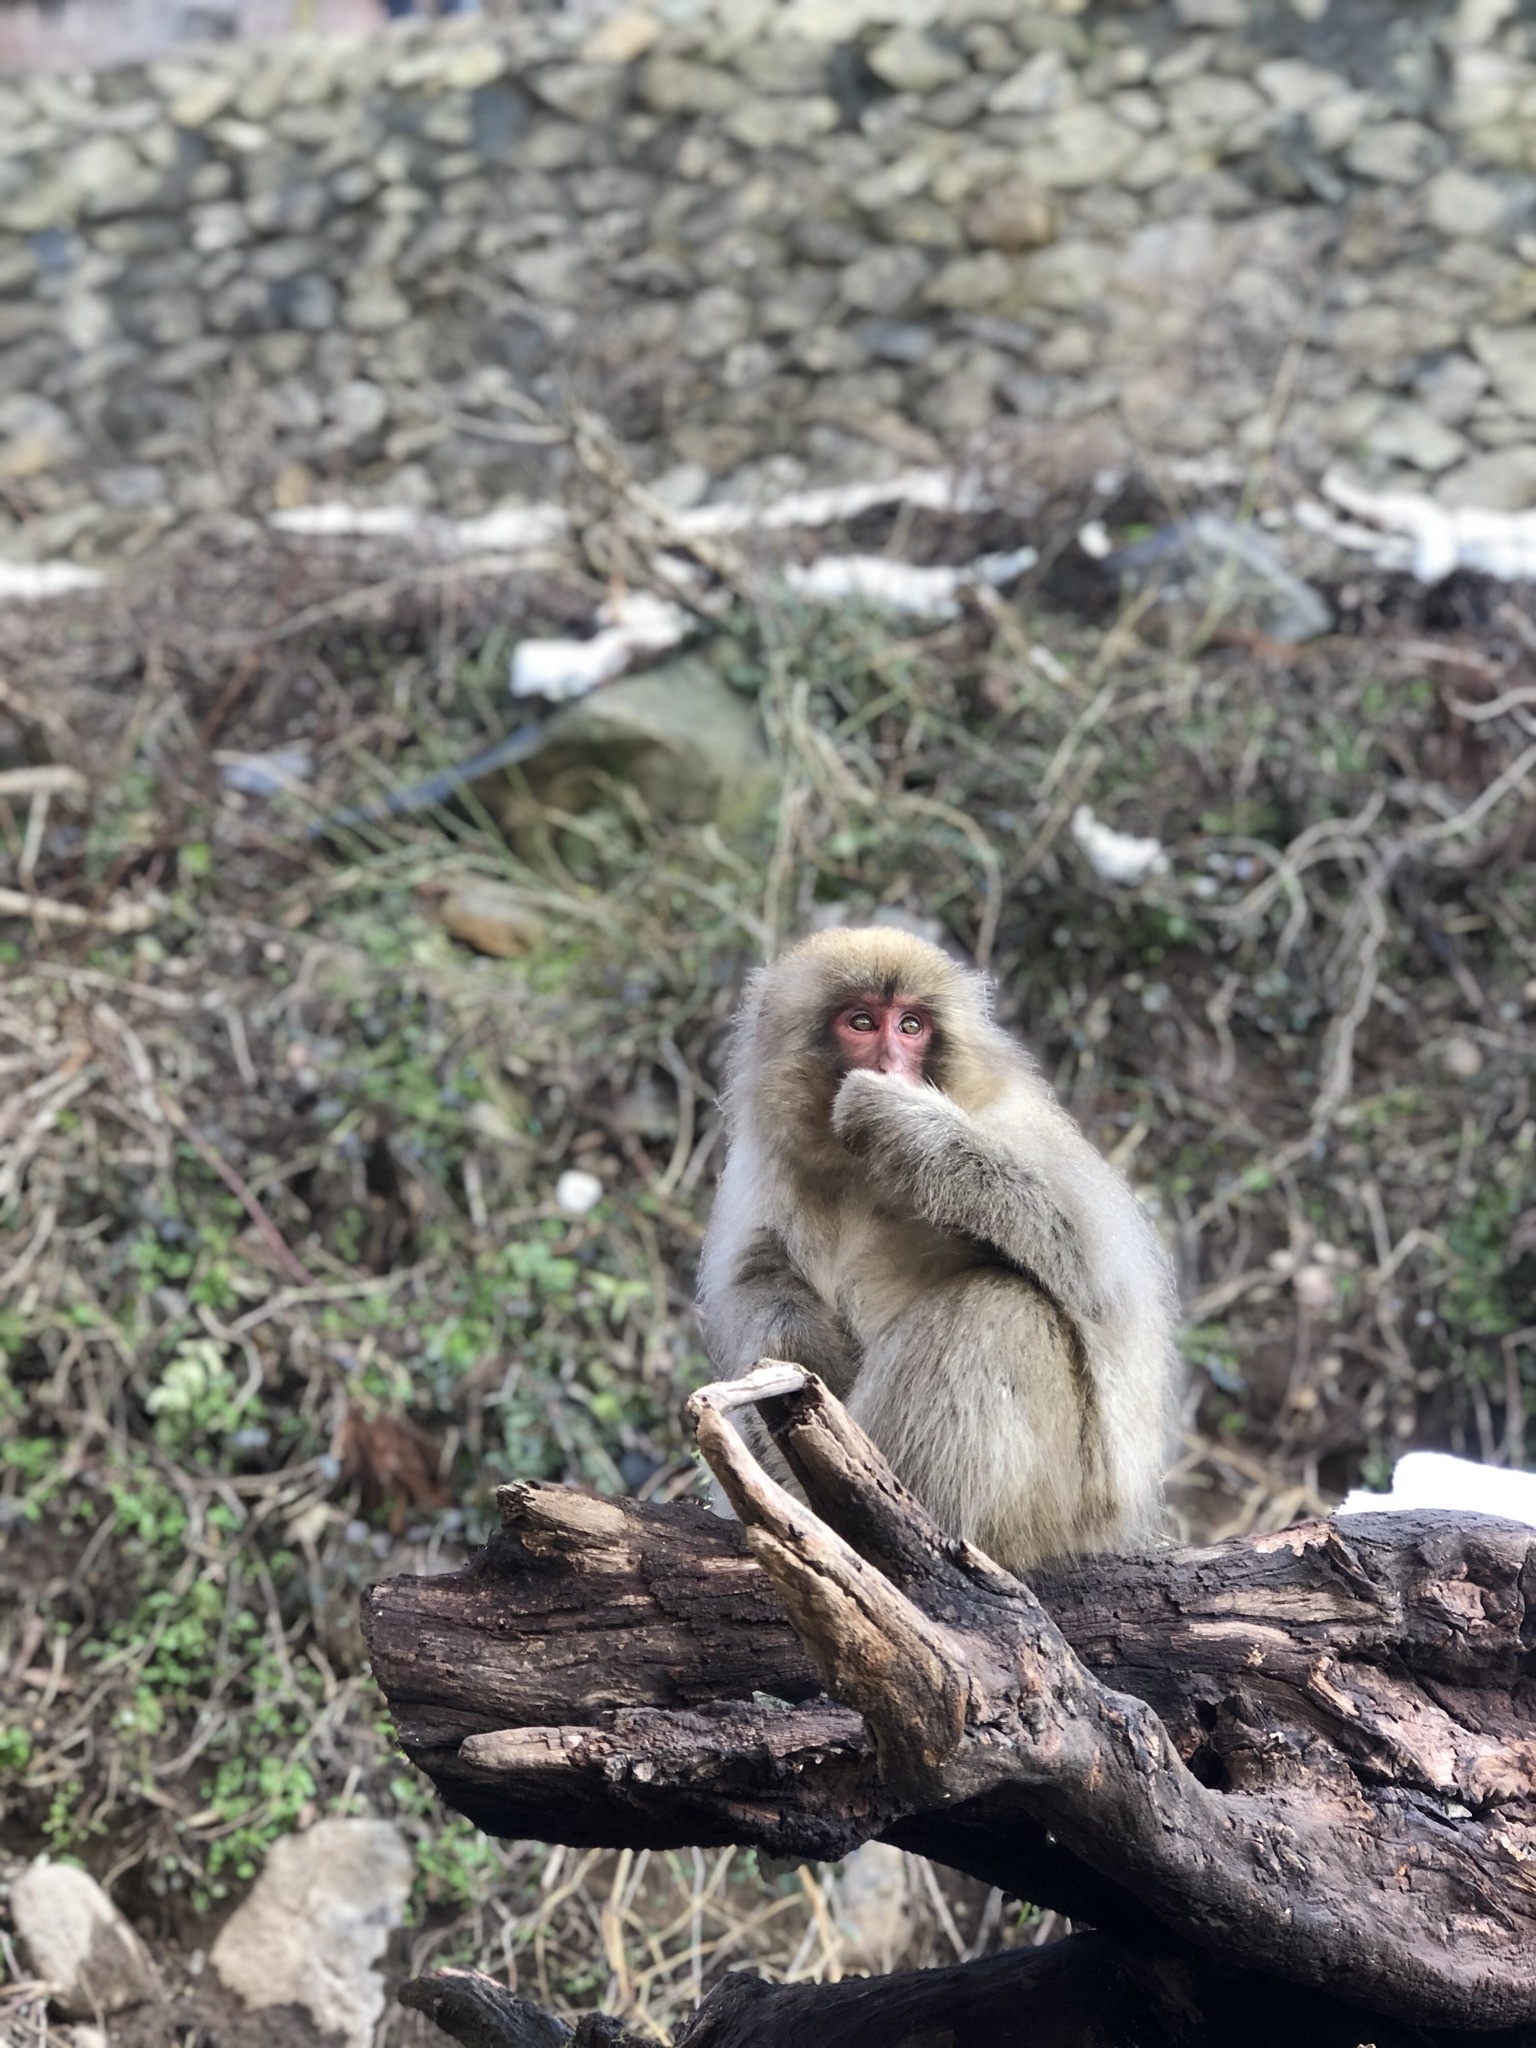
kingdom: Animalia
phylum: Chordata
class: Mammalia
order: Primates
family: Cercopithecidae
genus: Macaca
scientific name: Macaca fuscata
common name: Japanese macaque
